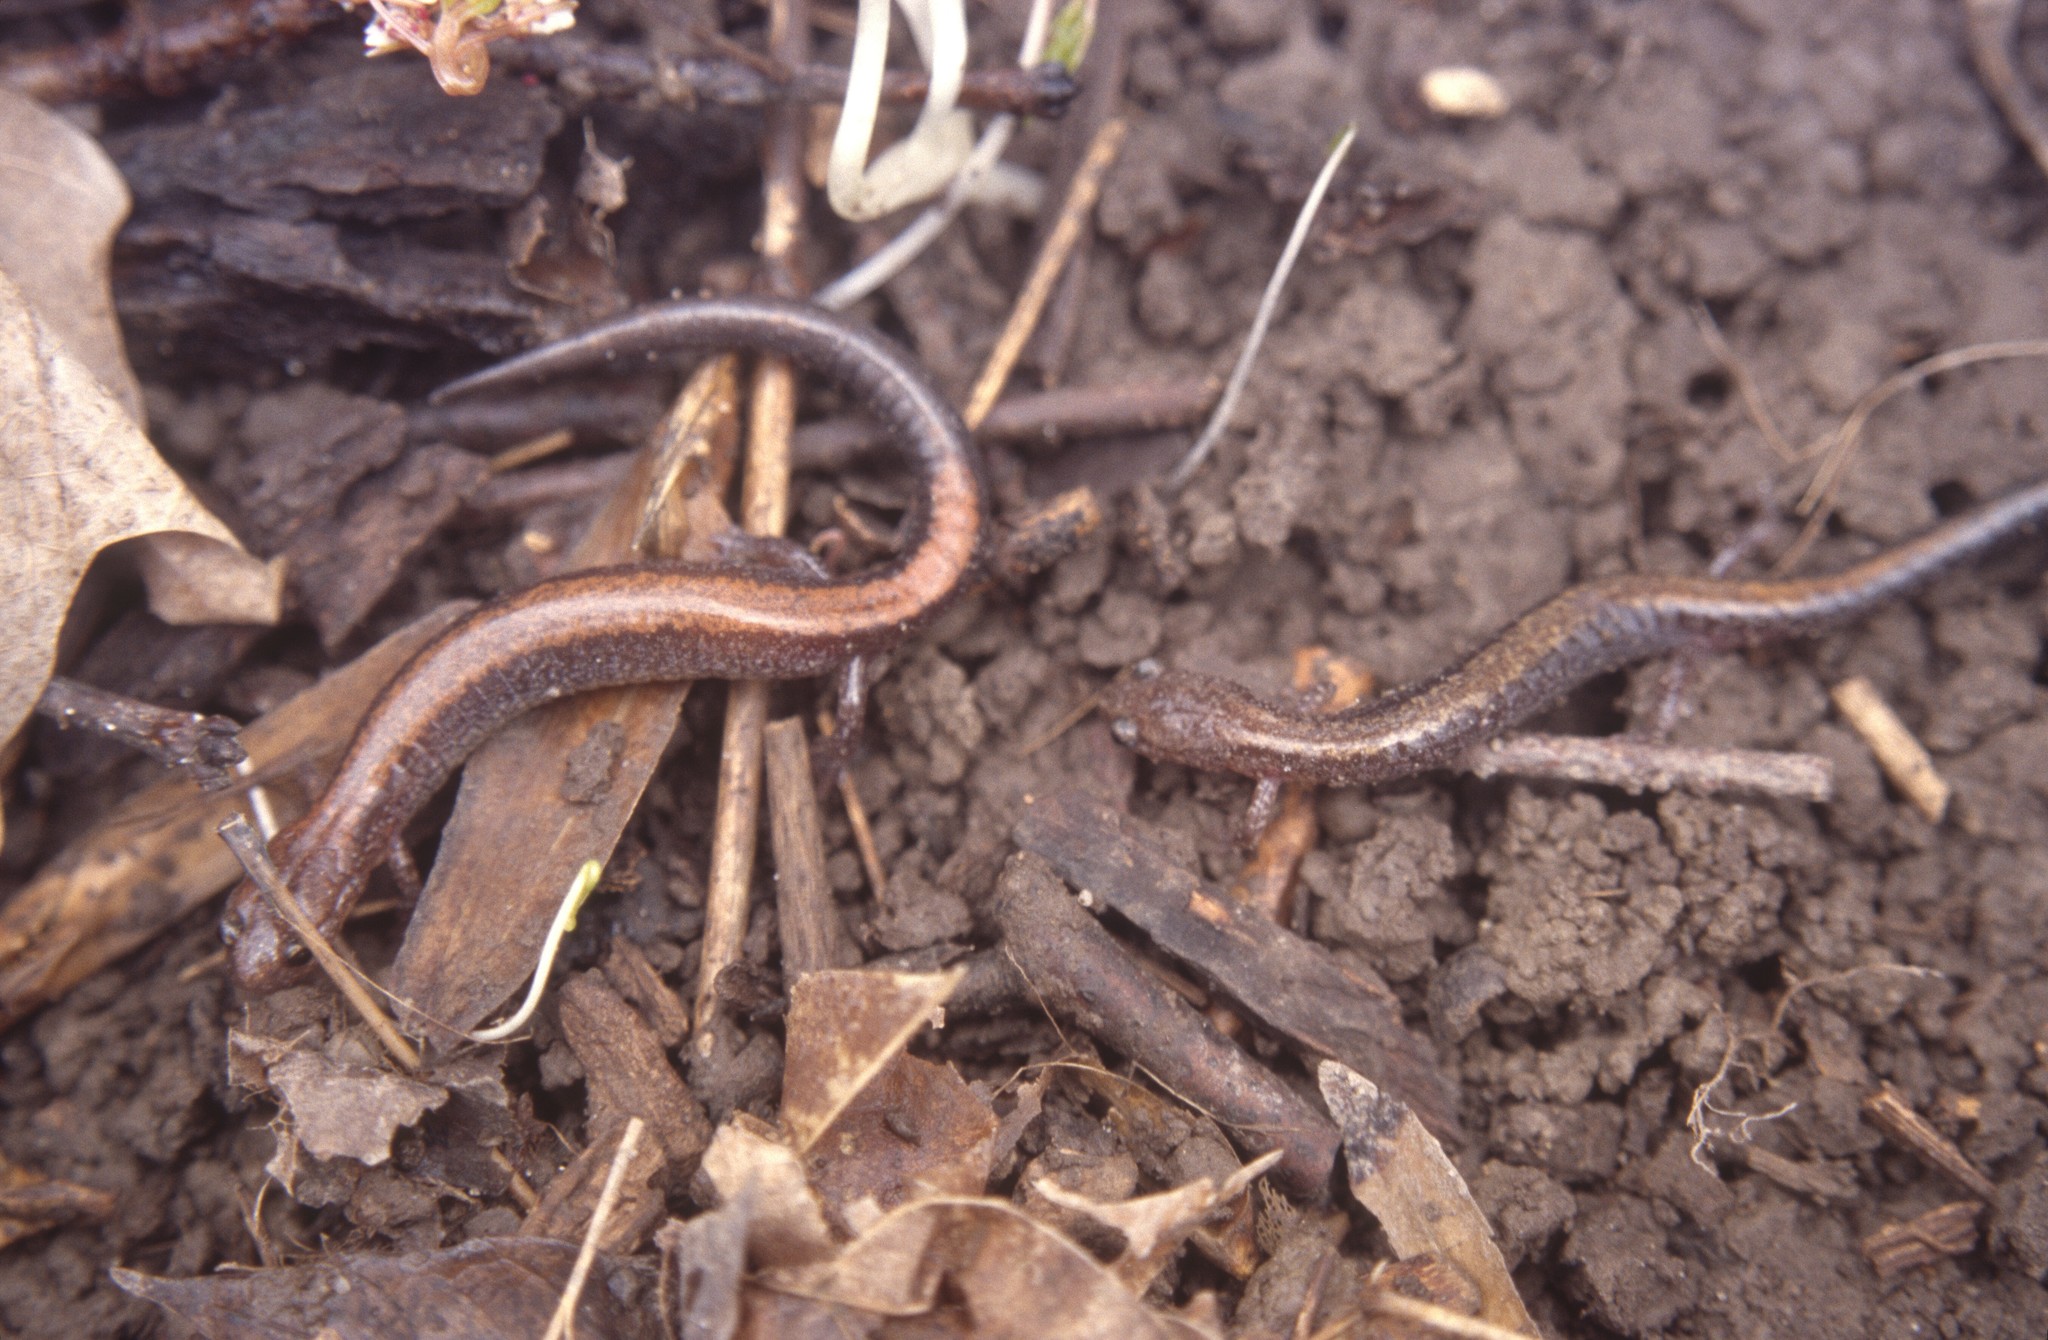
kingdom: Animalia
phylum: Chordata
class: Amphibia
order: Caudata
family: Plethodontidae
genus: Plethodon
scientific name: Plethodon cinereus
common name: Redback salamander
